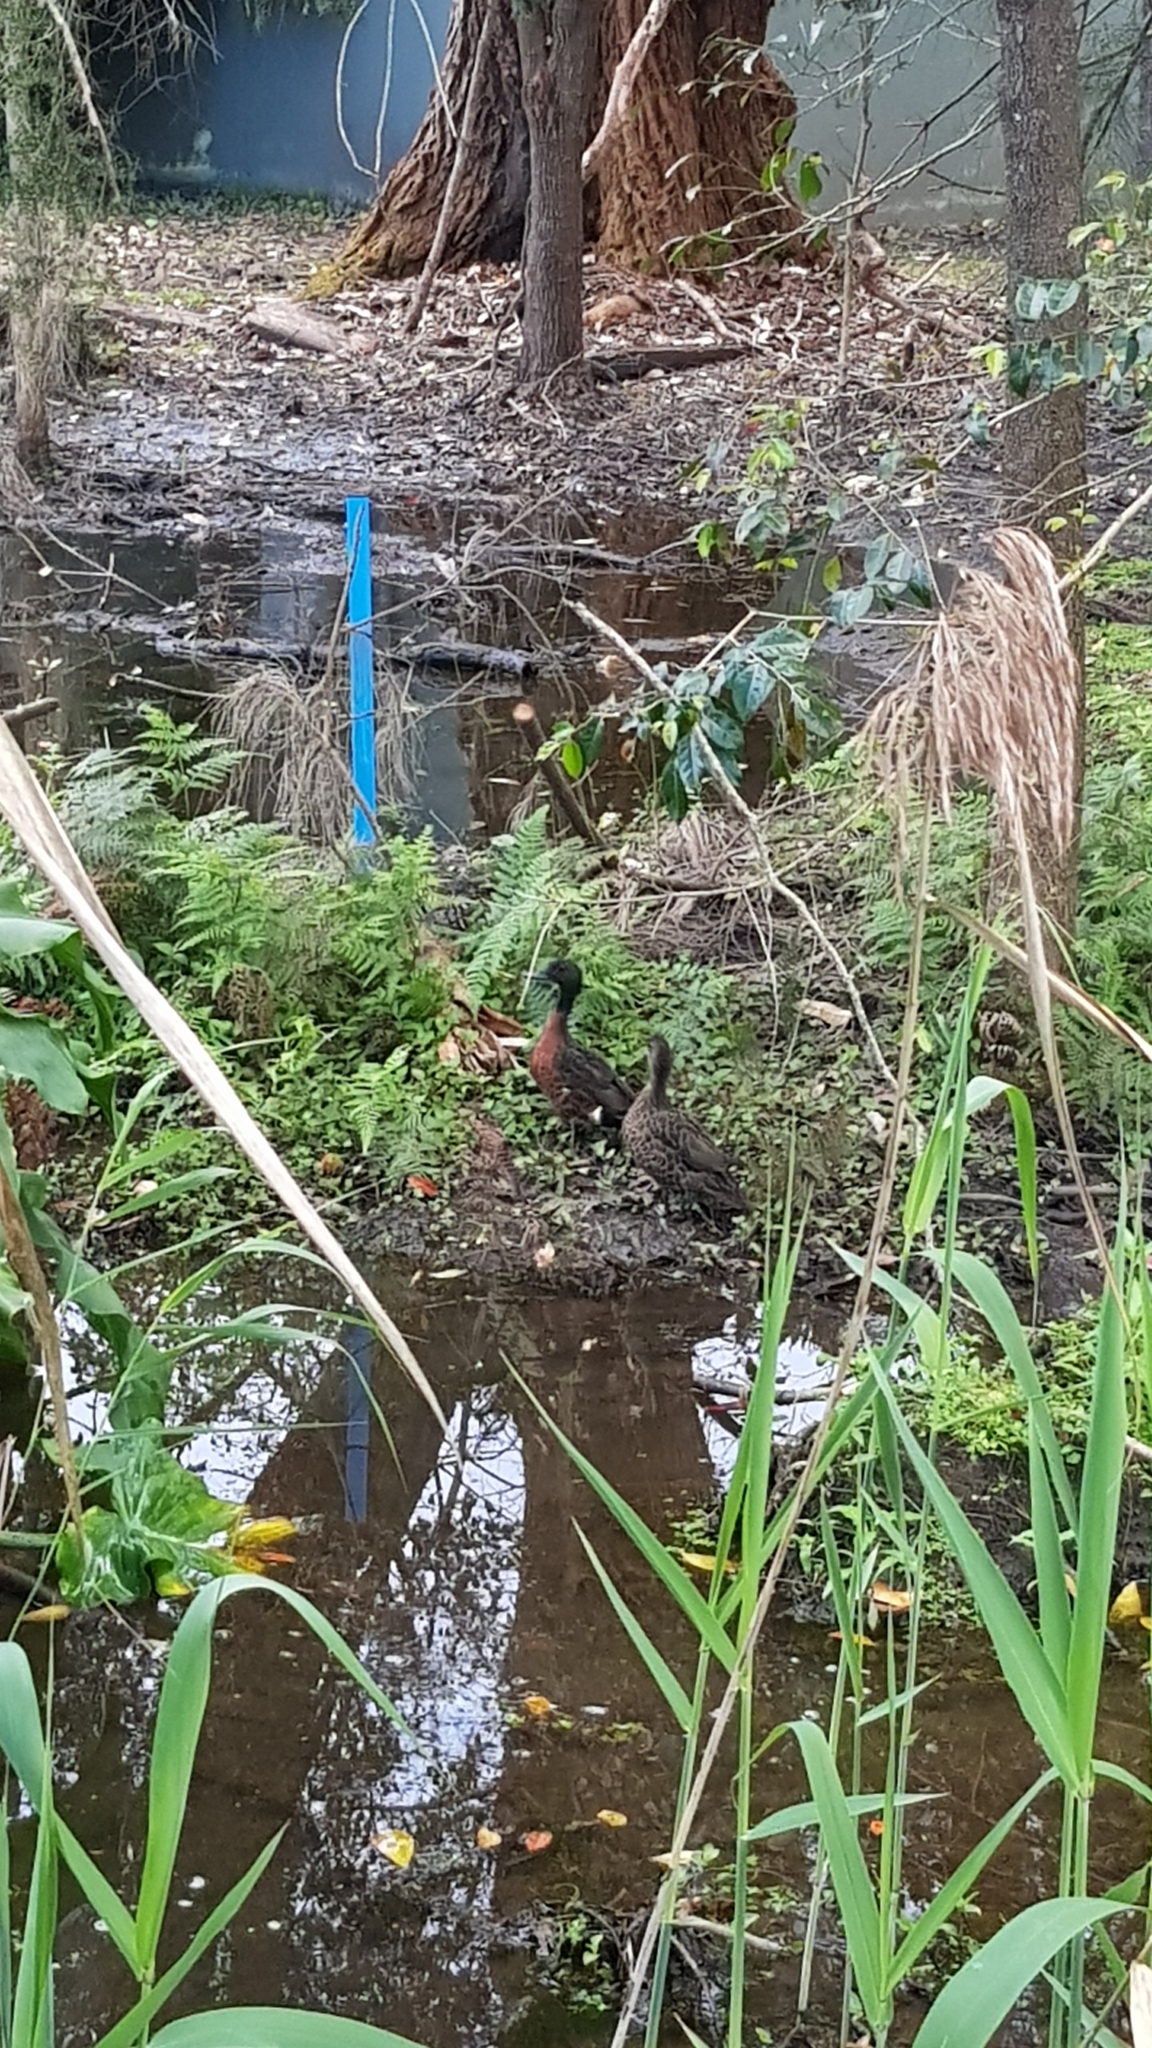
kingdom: Animalia
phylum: Chordata
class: Aves
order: Anseriformes
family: Anatidae
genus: Anas
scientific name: Anas castanea
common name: Chestnut teal
